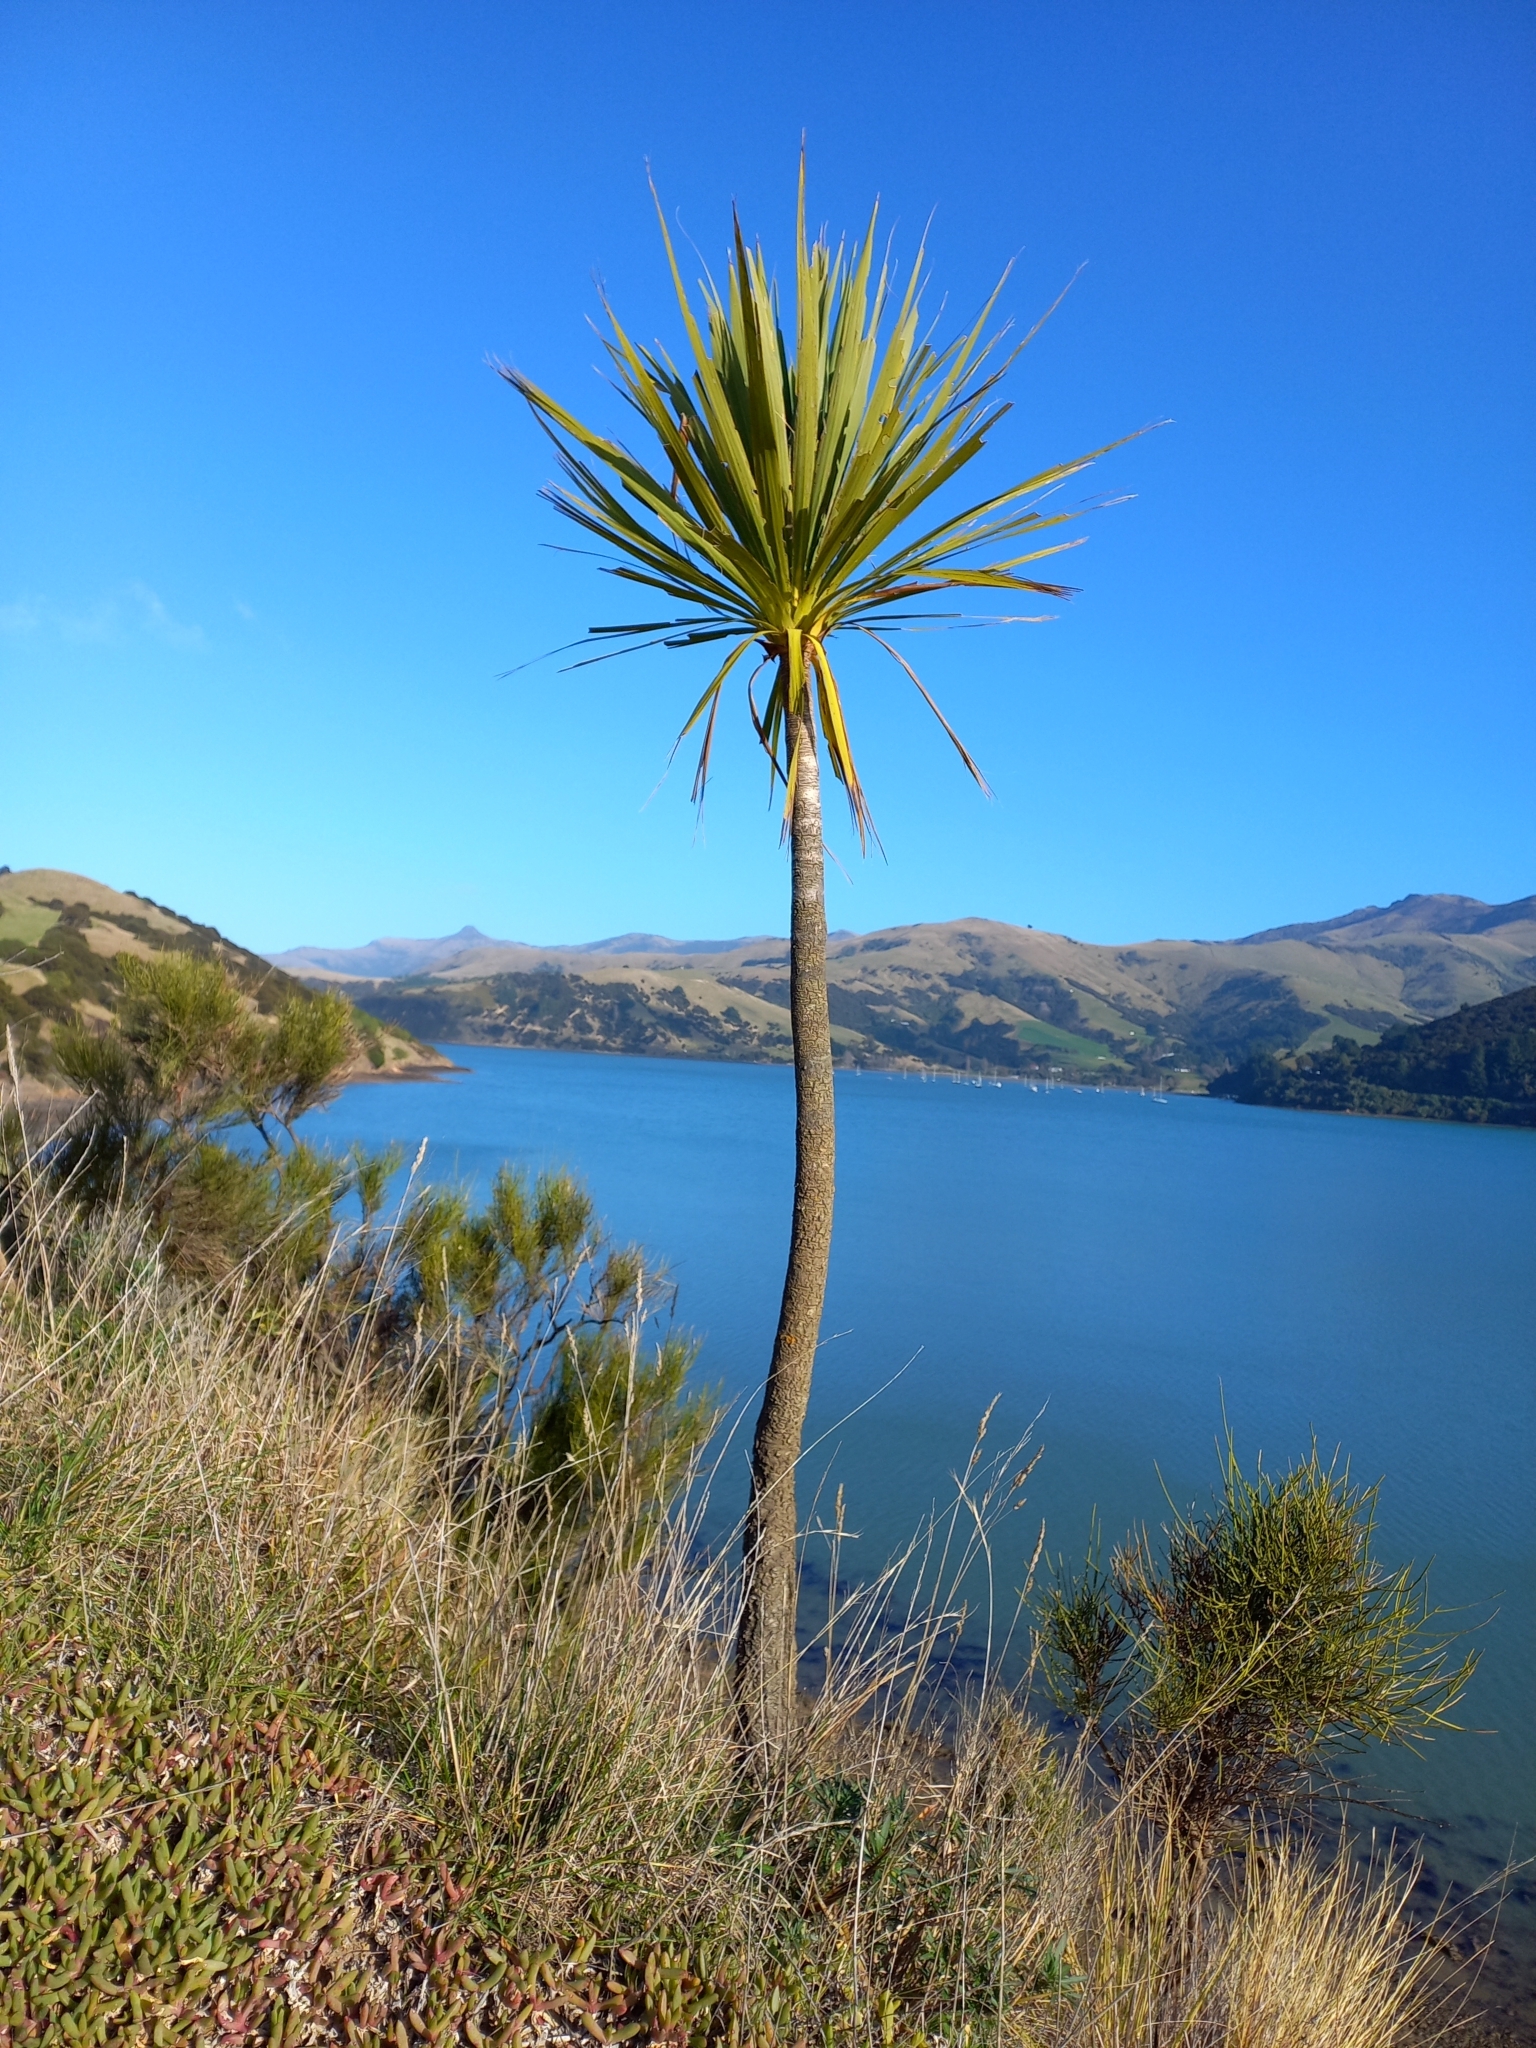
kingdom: Plantae
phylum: Tracheophyta
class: Liliopsida
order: Asparagales
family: Asparagaceae
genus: Cordyline
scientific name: Cordyline australis
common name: Cabbage-palm
